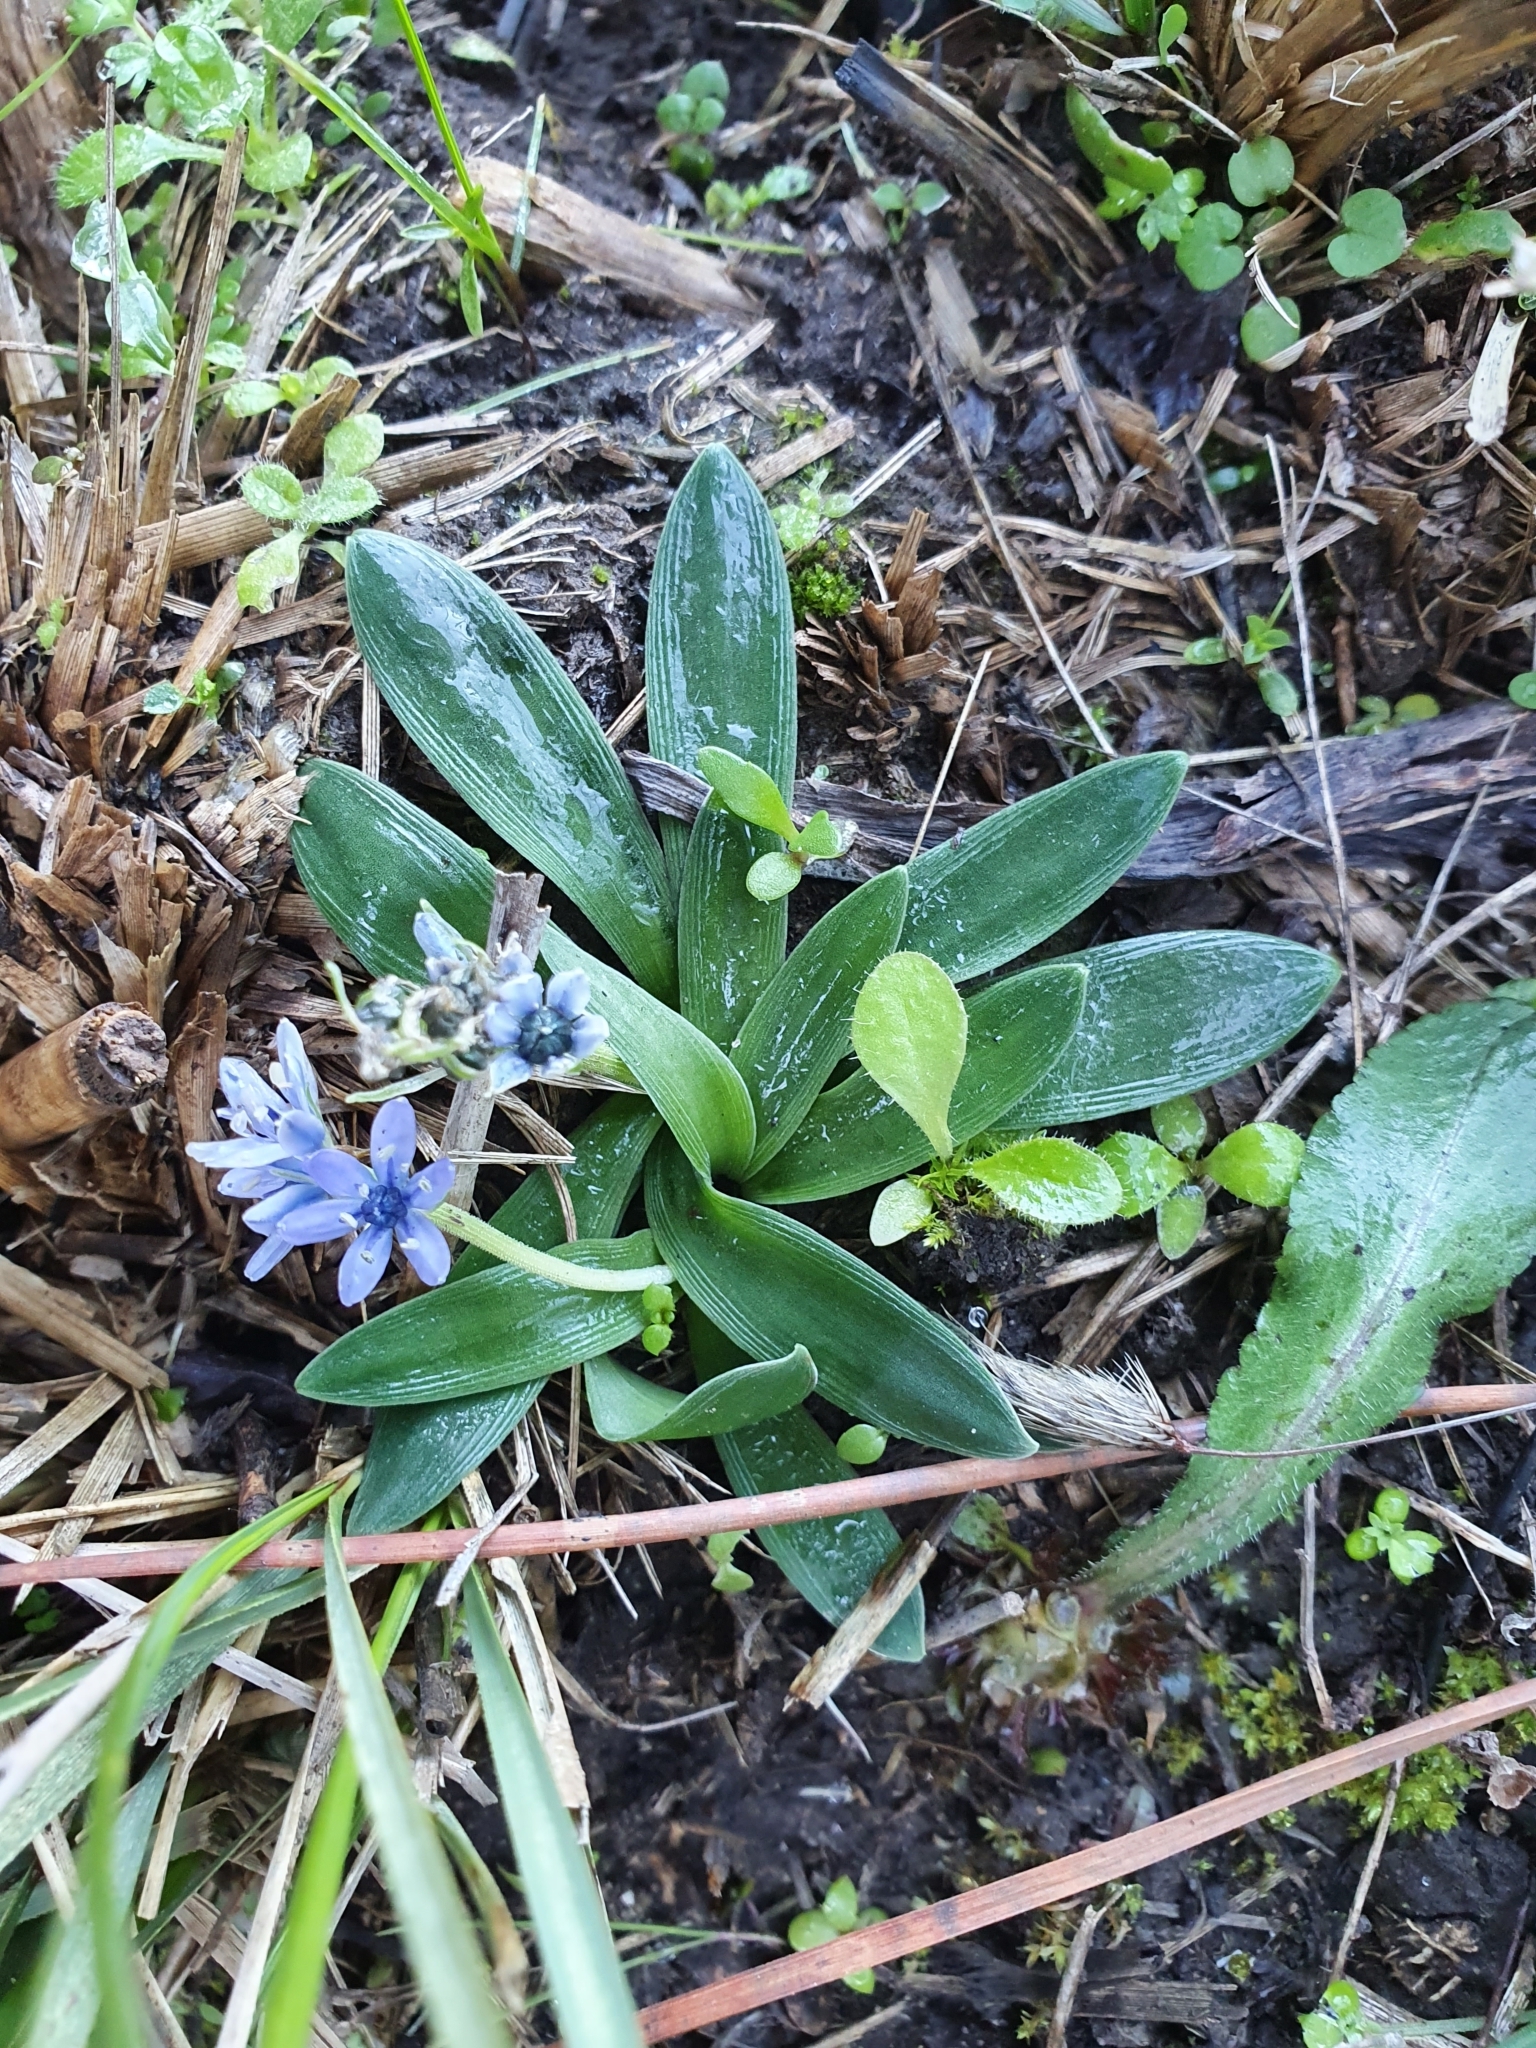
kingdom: Plantae
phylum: Tracheophyta
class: Liliopsida
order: Asparagales
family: Asparagaceae
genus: Hyacinthoides
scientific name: Hyacinthoides lingulata
